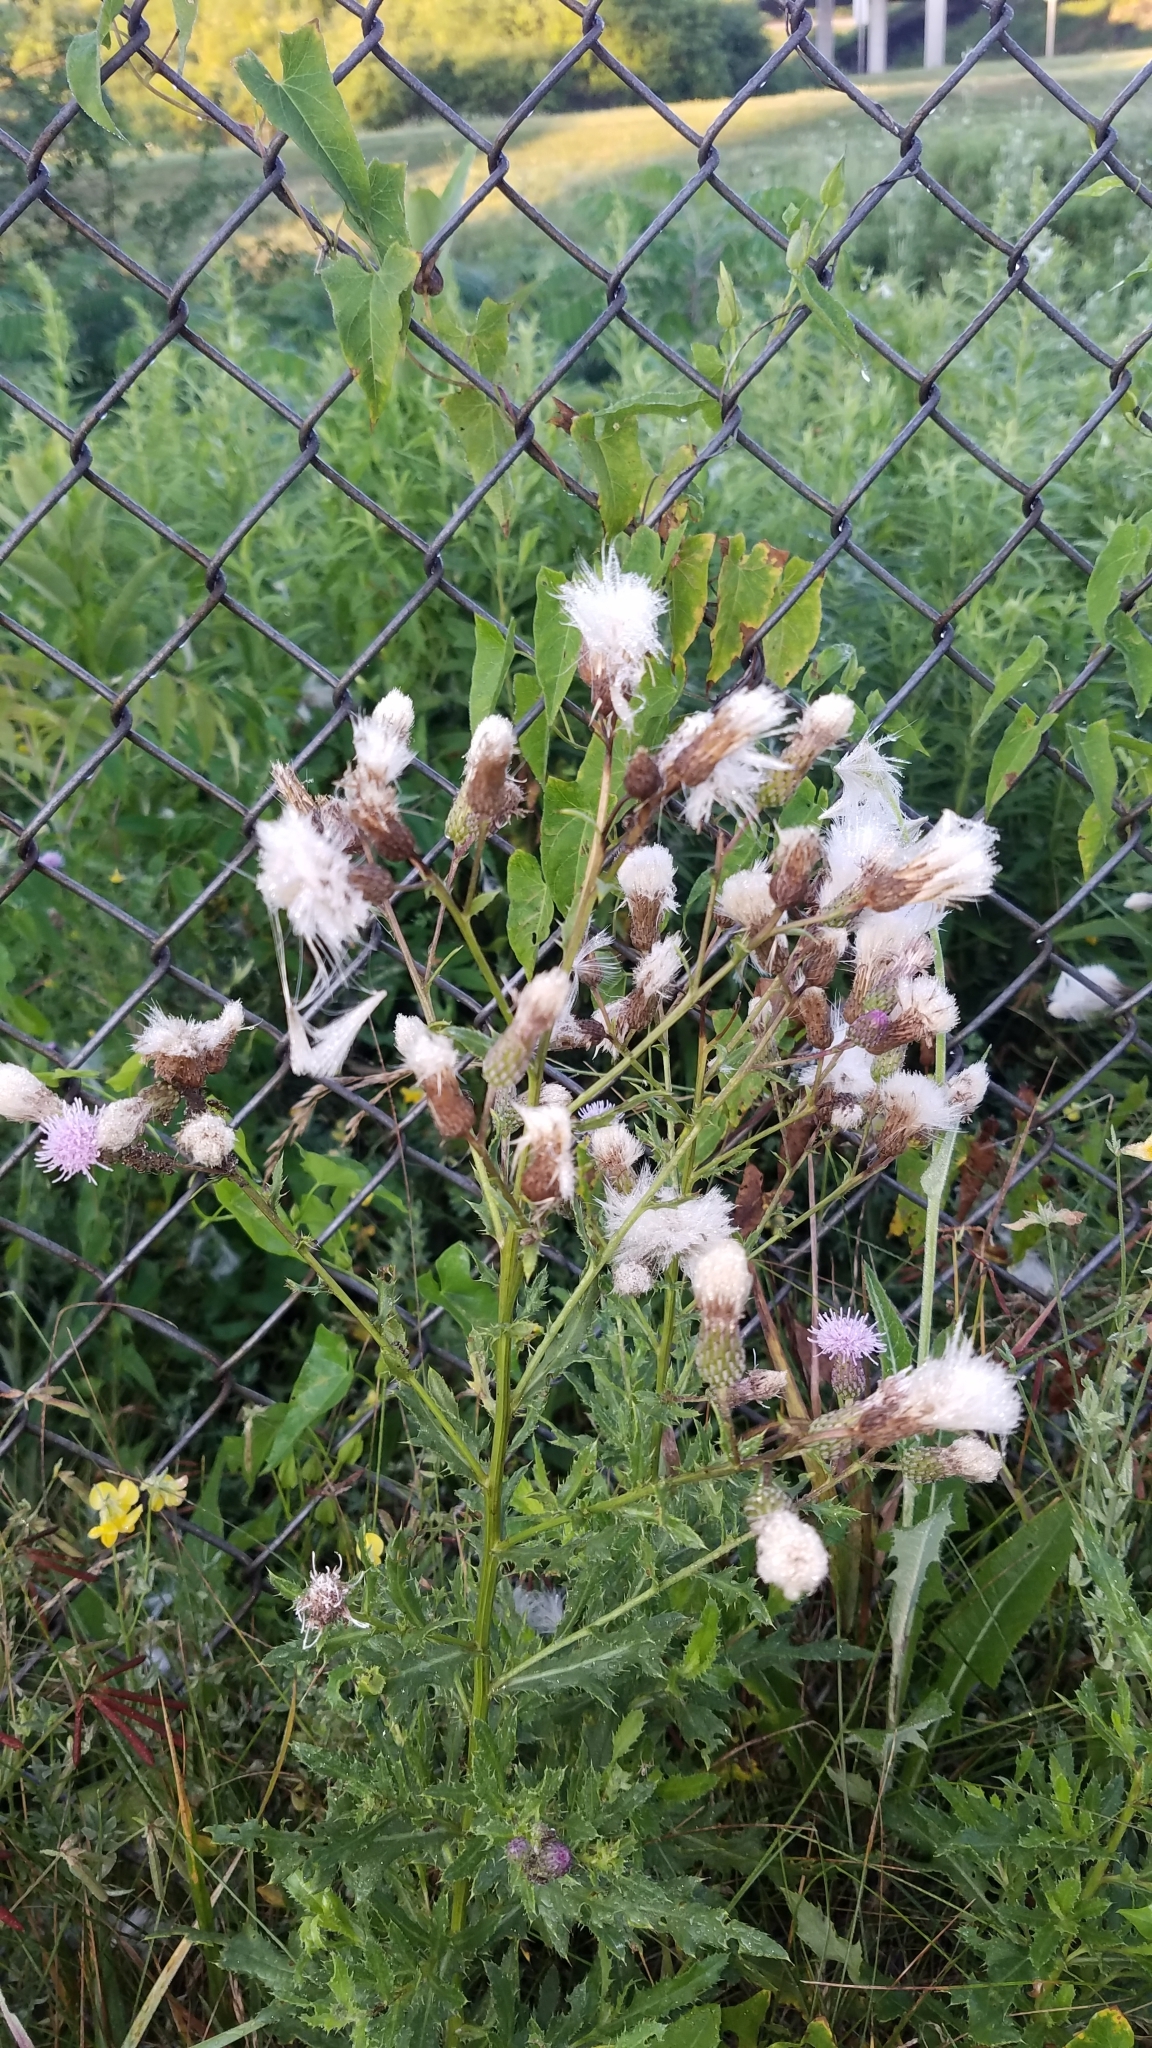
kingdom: Plantae
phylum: Tracheophyta
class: Magnoliopsida
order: Asterales
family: Asteraceae
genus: Cirsium
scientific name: Cirsium arvense
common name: Creeping thistle
